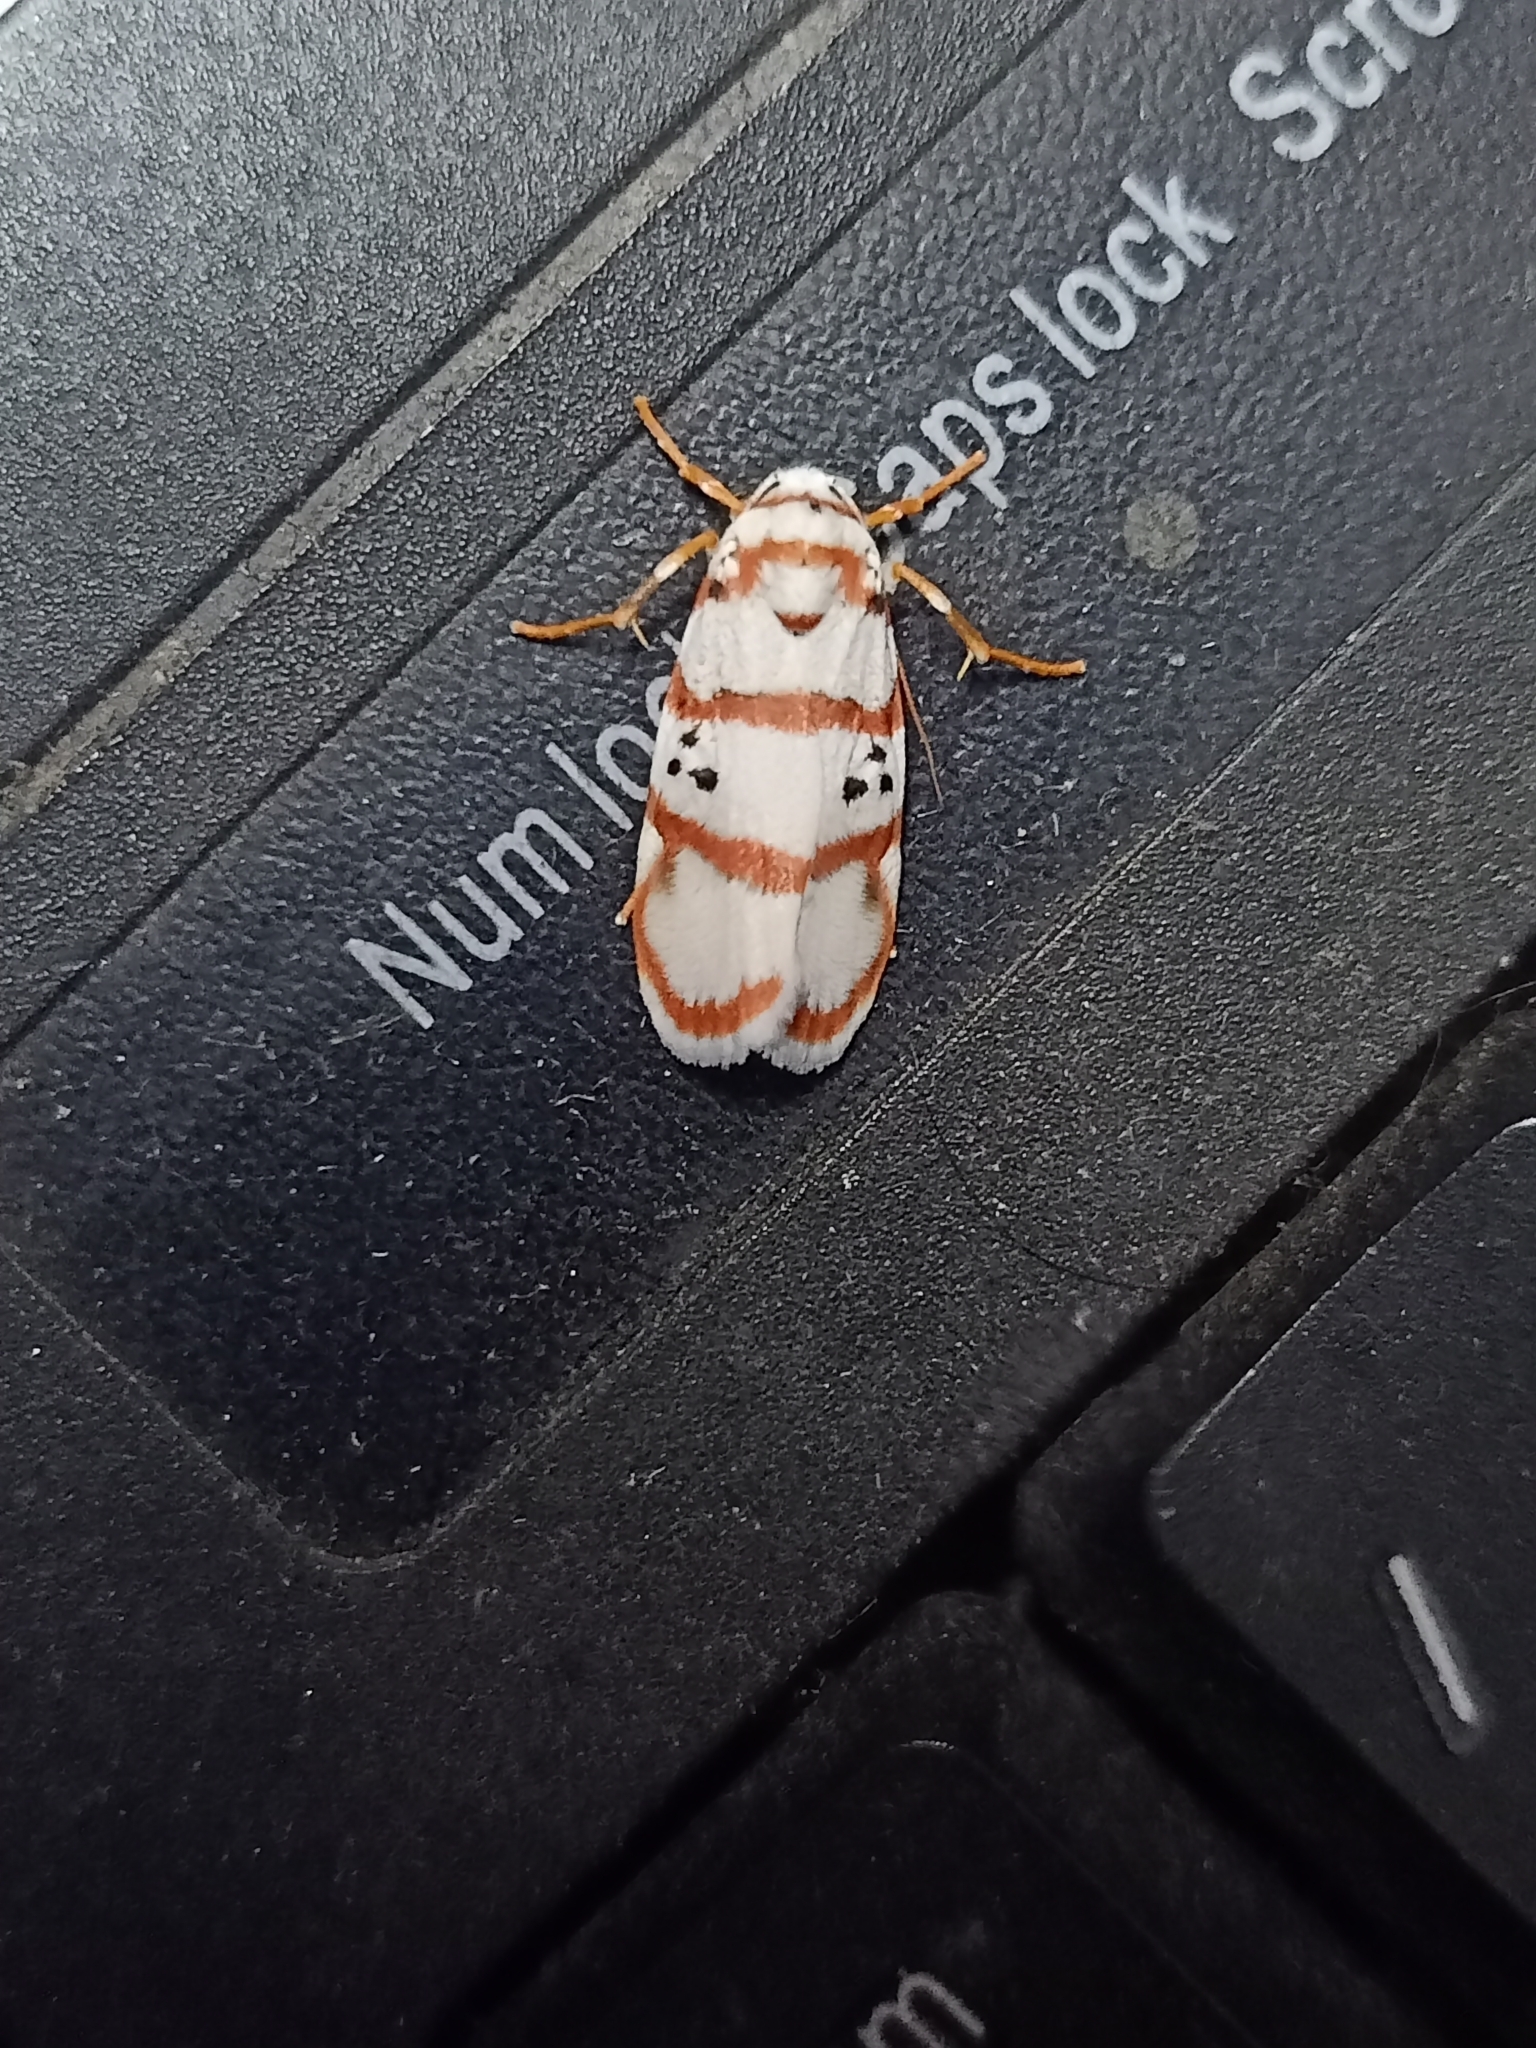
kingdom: Animalia
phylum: Arthropoda
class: Insecta
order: Lepidoptera
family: Erebidae
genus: Cyana
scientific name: Cyana peregrina
